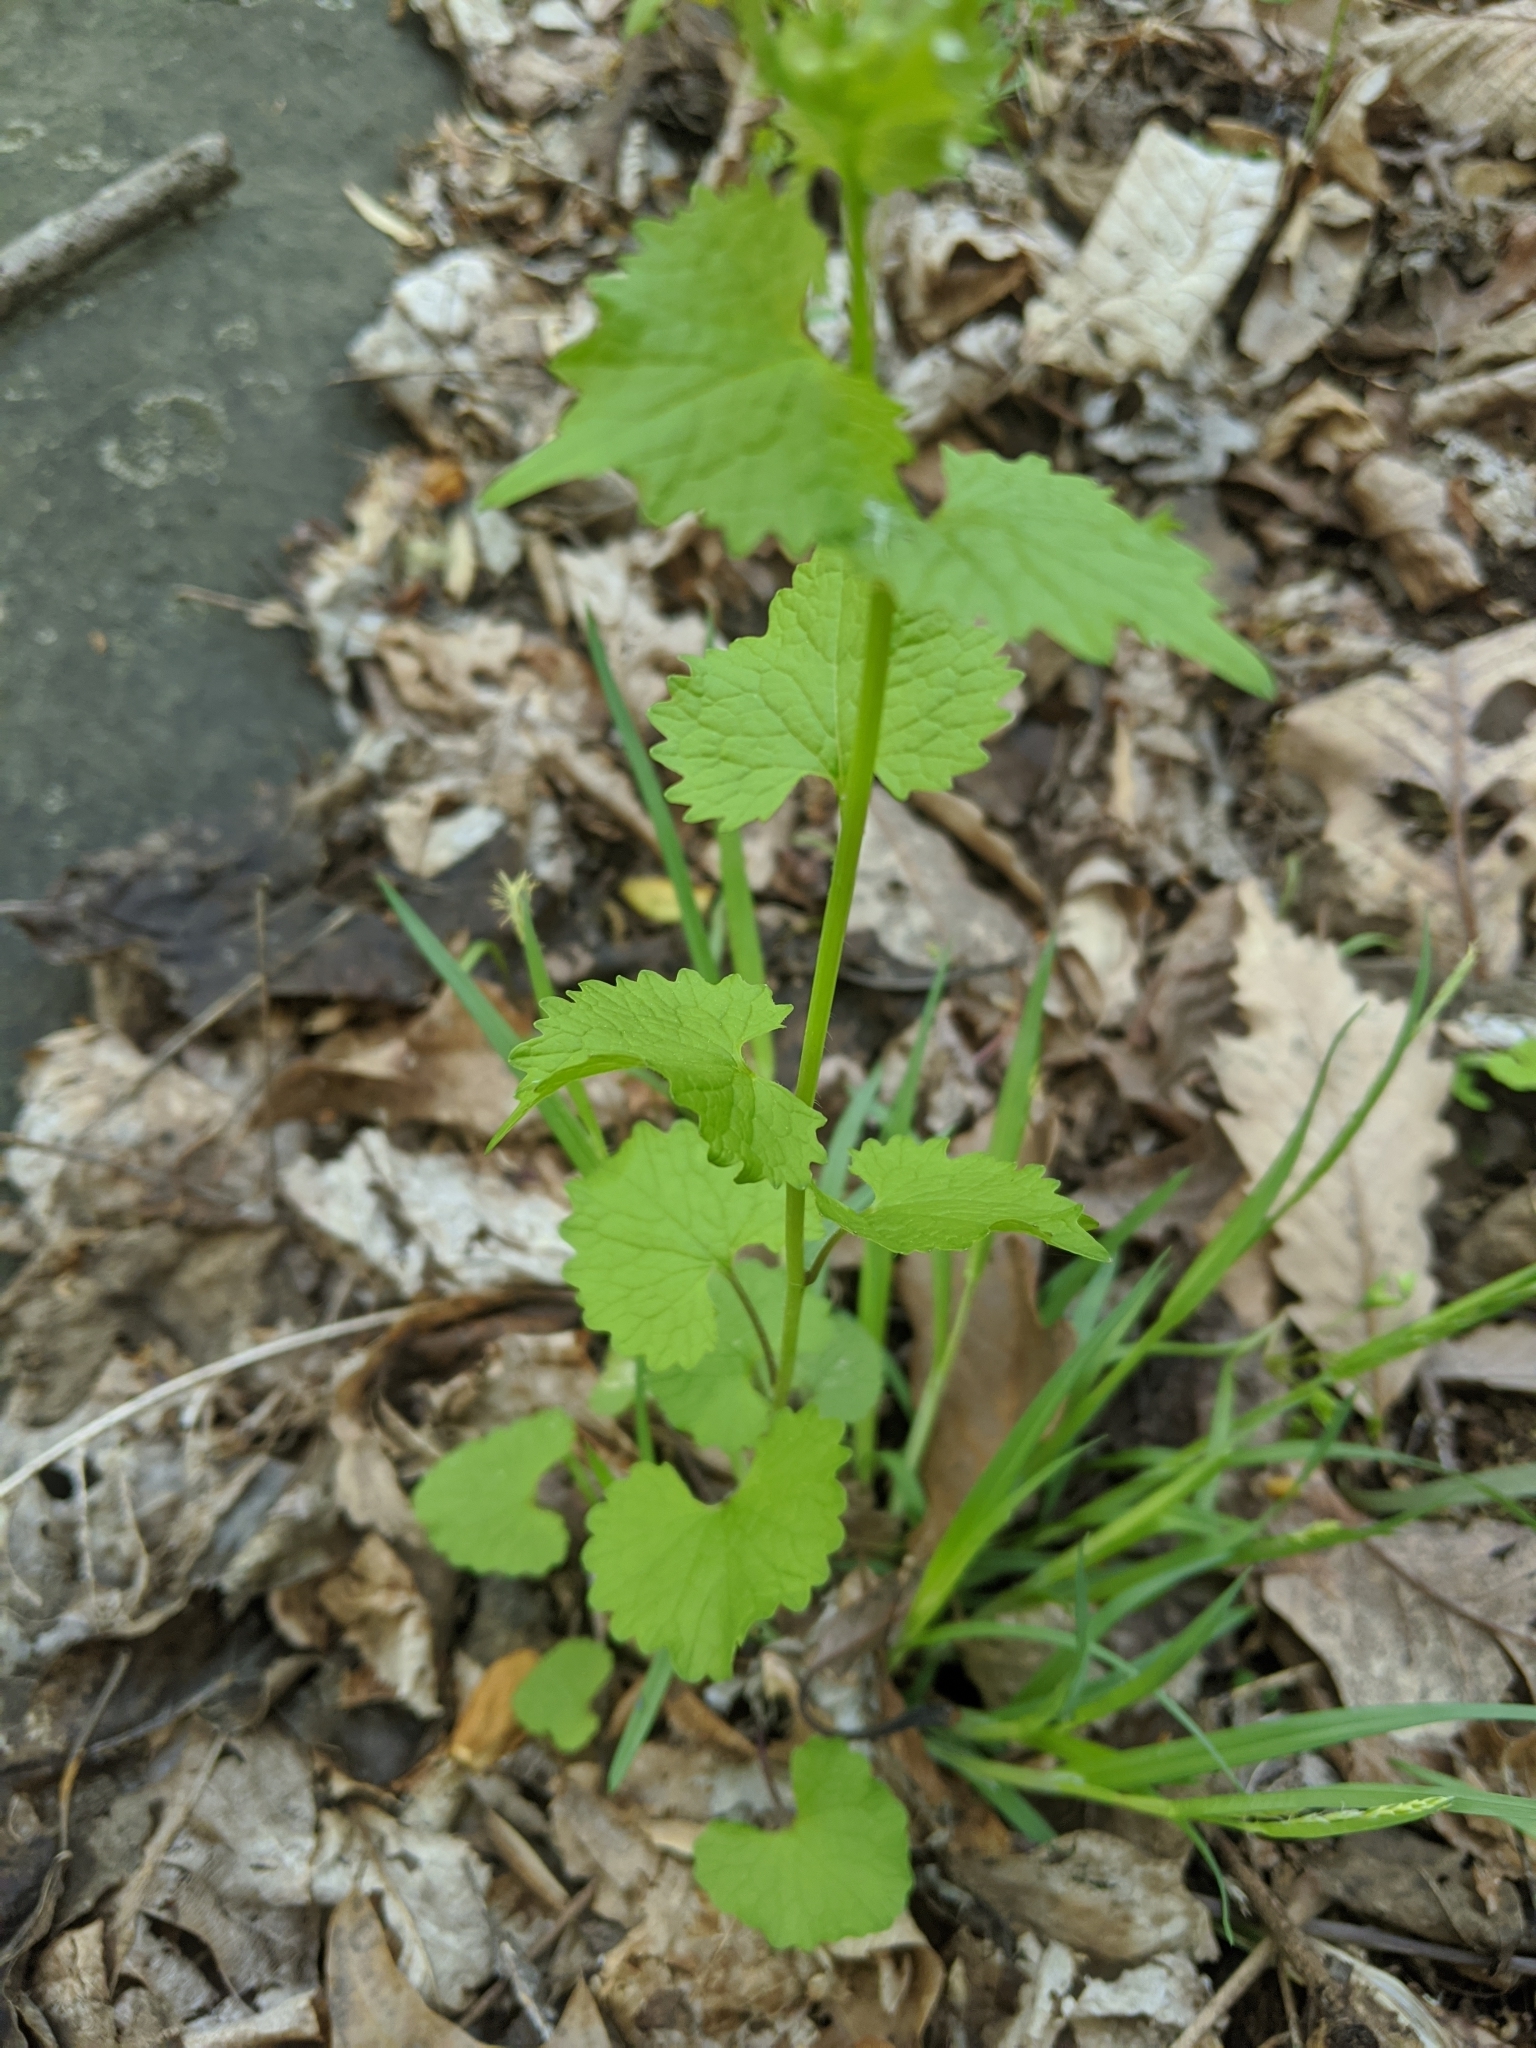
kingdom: Plantae
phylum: Tracheophyta
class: Magnoliopsida
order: Brassicales
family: Brassicaceae
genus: Alliaria
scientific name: Alliaria petiolata
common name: Garlic mustard
